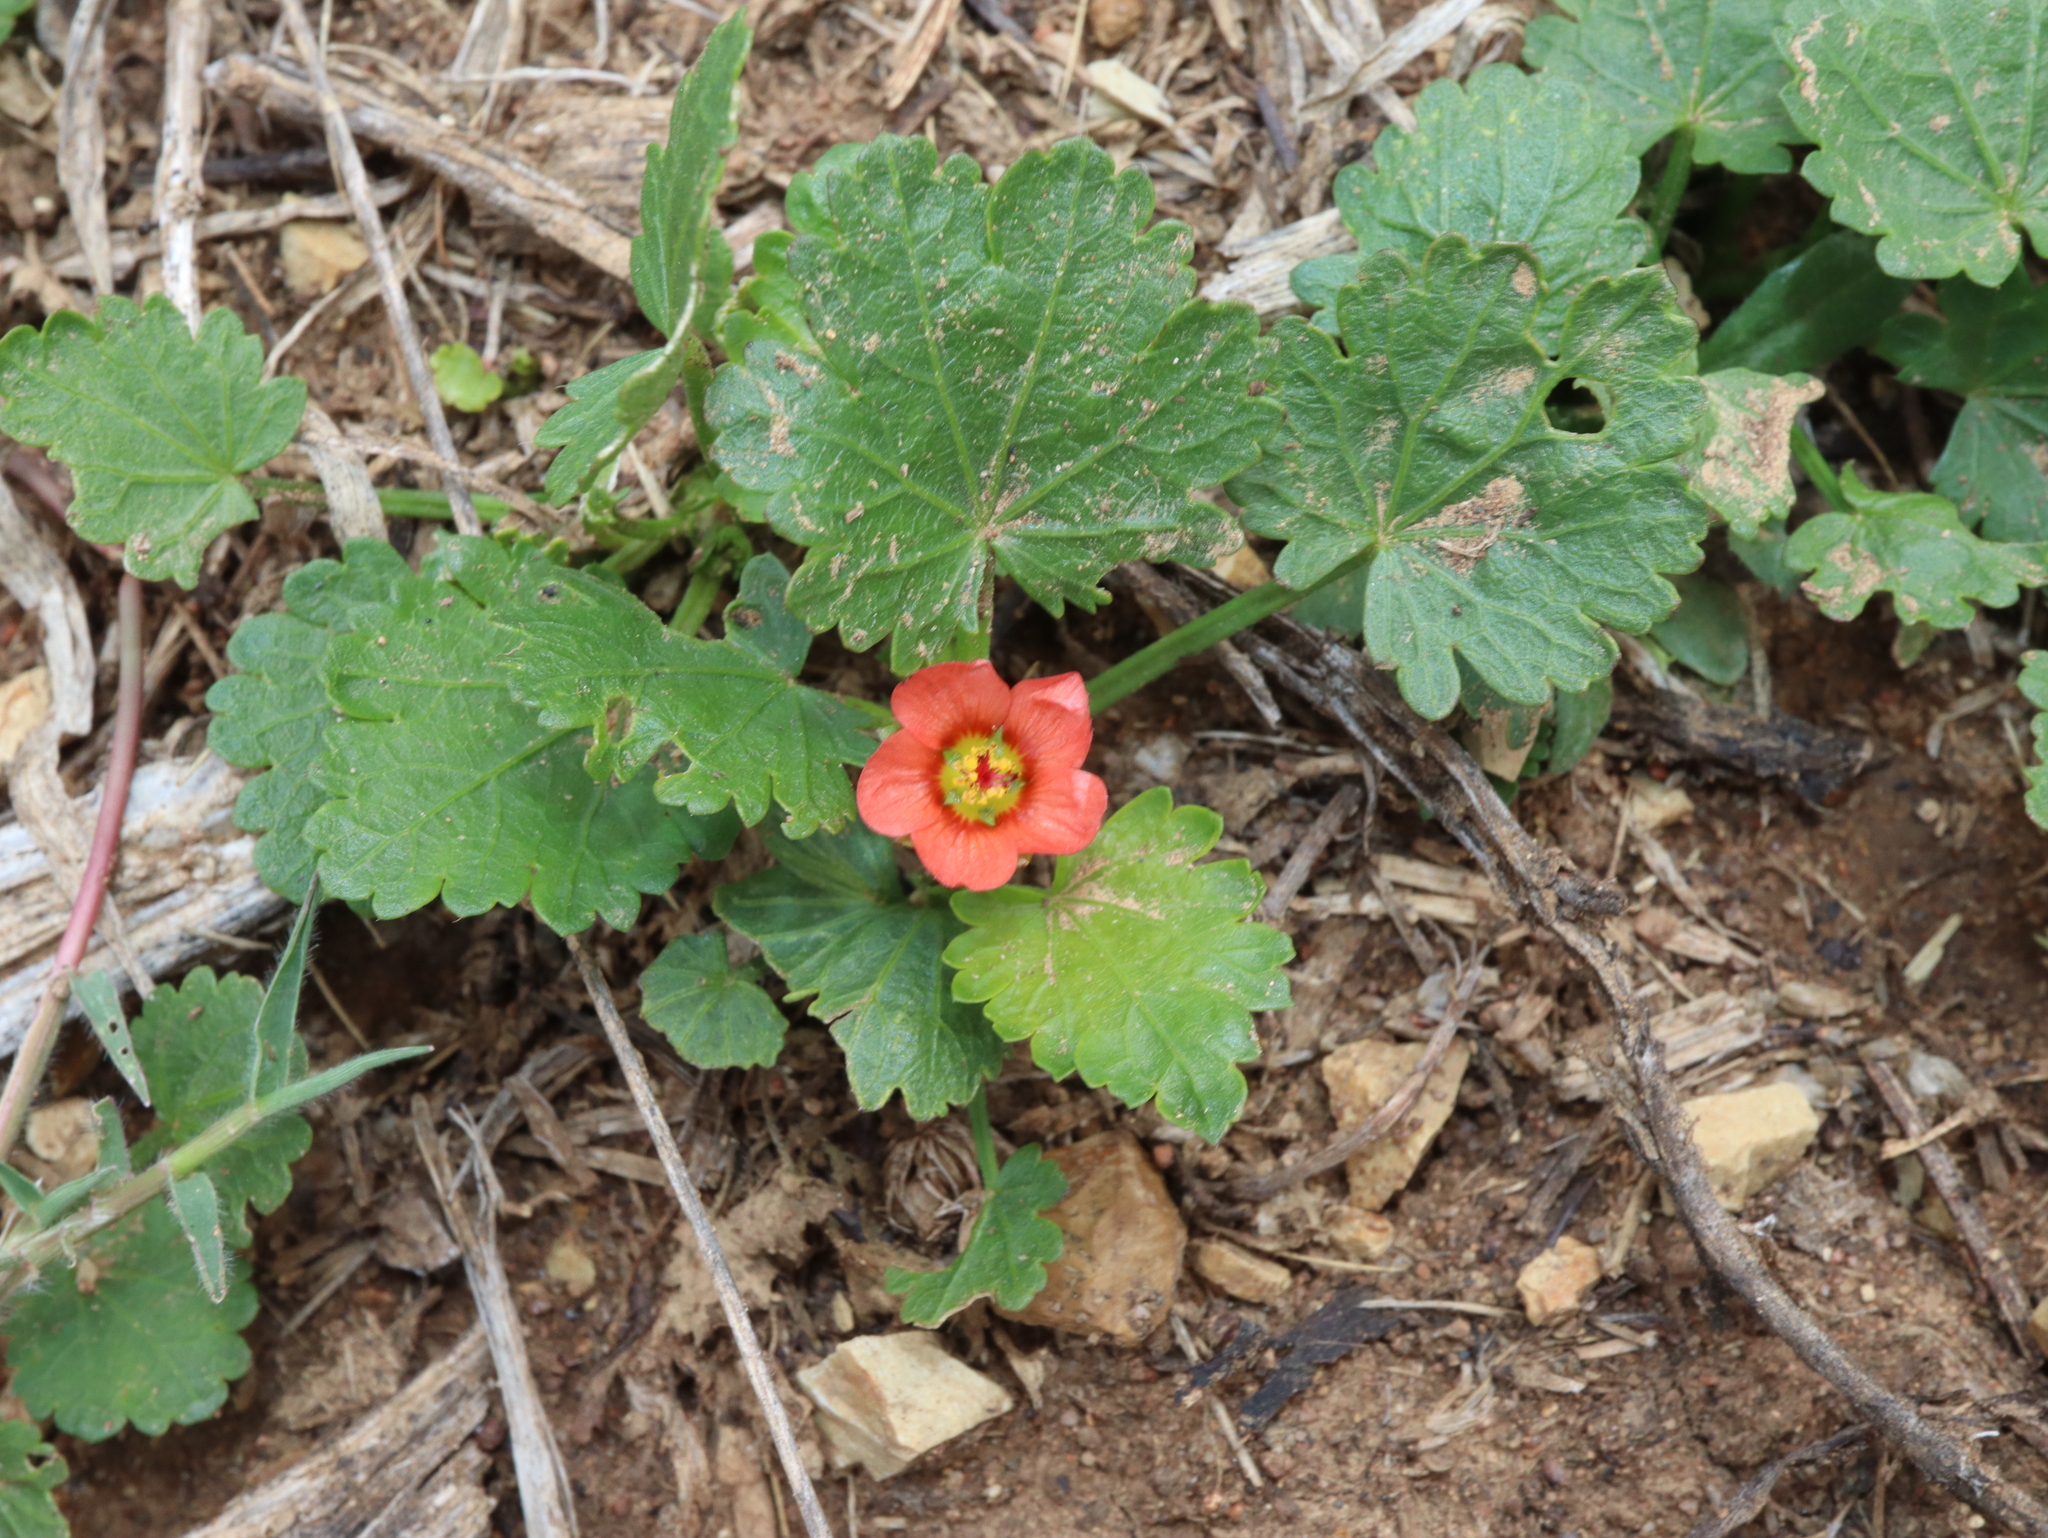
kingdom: Plantae
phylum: Tracheophyta
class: Magnoliopsida
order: Malvales
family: Malvaceae
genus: Modiola
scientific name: Modiola caroliniana
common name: Carolina bristlemallow
